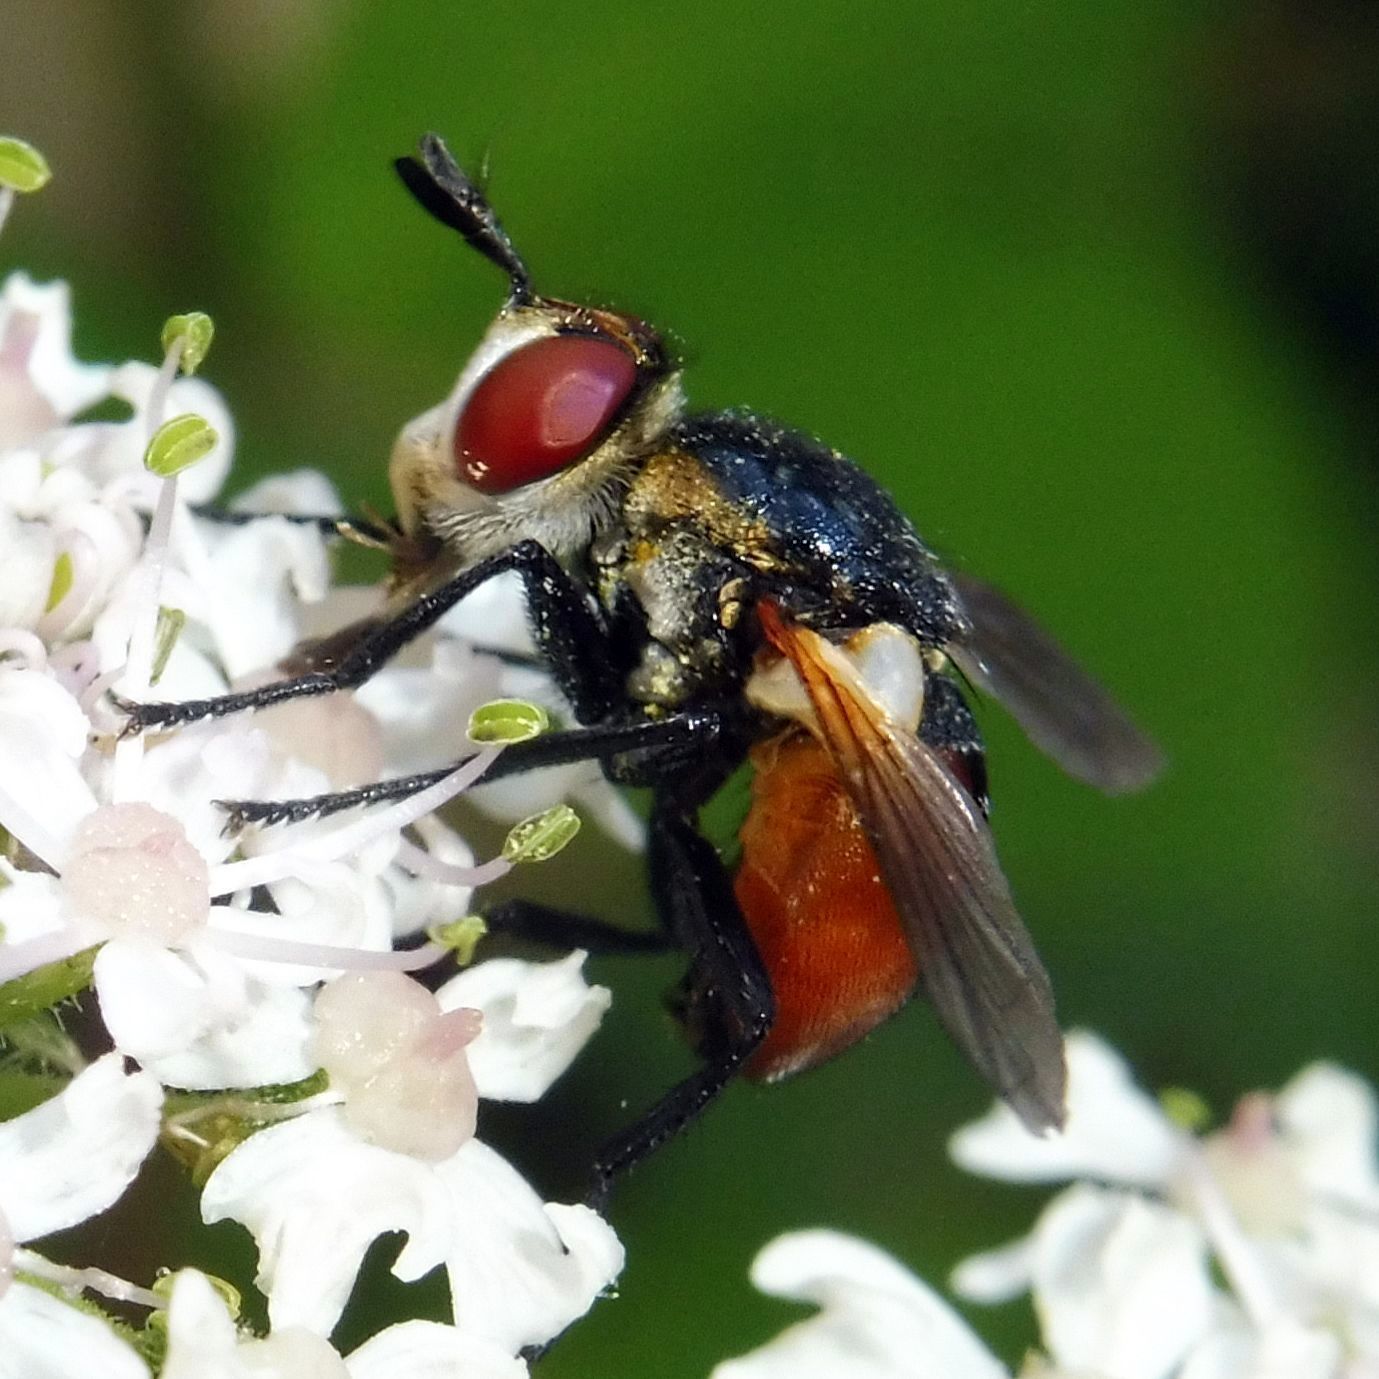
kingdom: Animalia
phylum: Arthropoda
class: Insecta
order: Diptera
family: Tachinidae
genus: Gymnosoma
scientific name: Gymnosoma rotundatum
